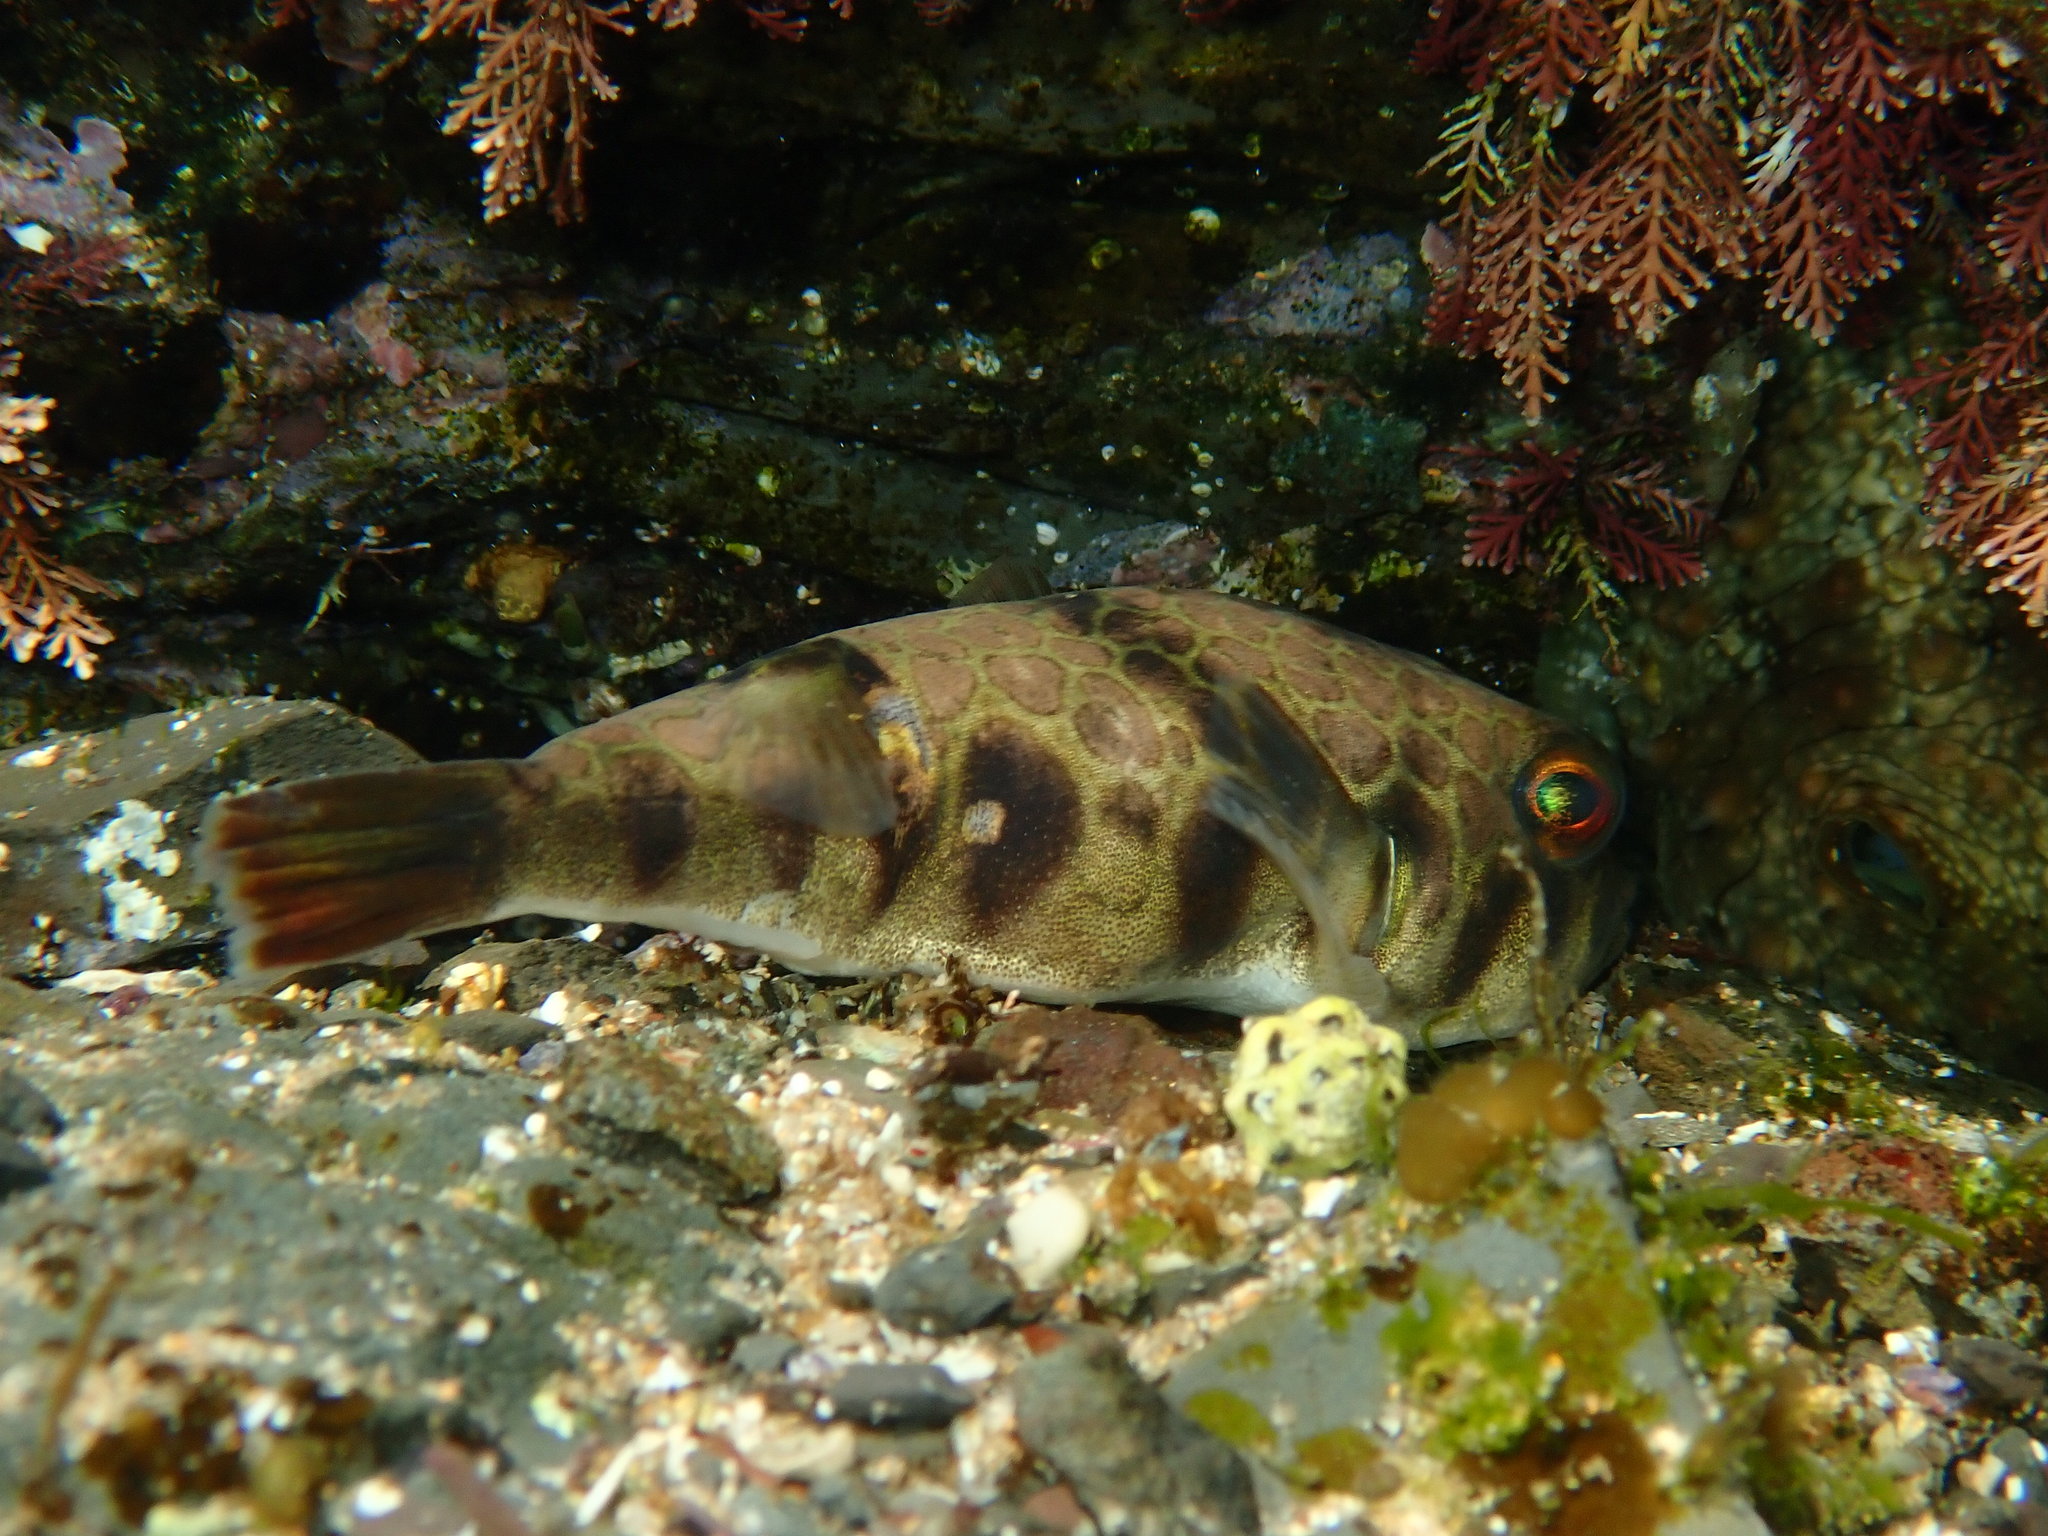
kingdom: Animalia
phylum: Chordata
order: Tetraodontiformes
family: Tetraodontidae
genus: Tetractenos
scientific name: Tetractenos glaber
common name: Smooth toadfish
